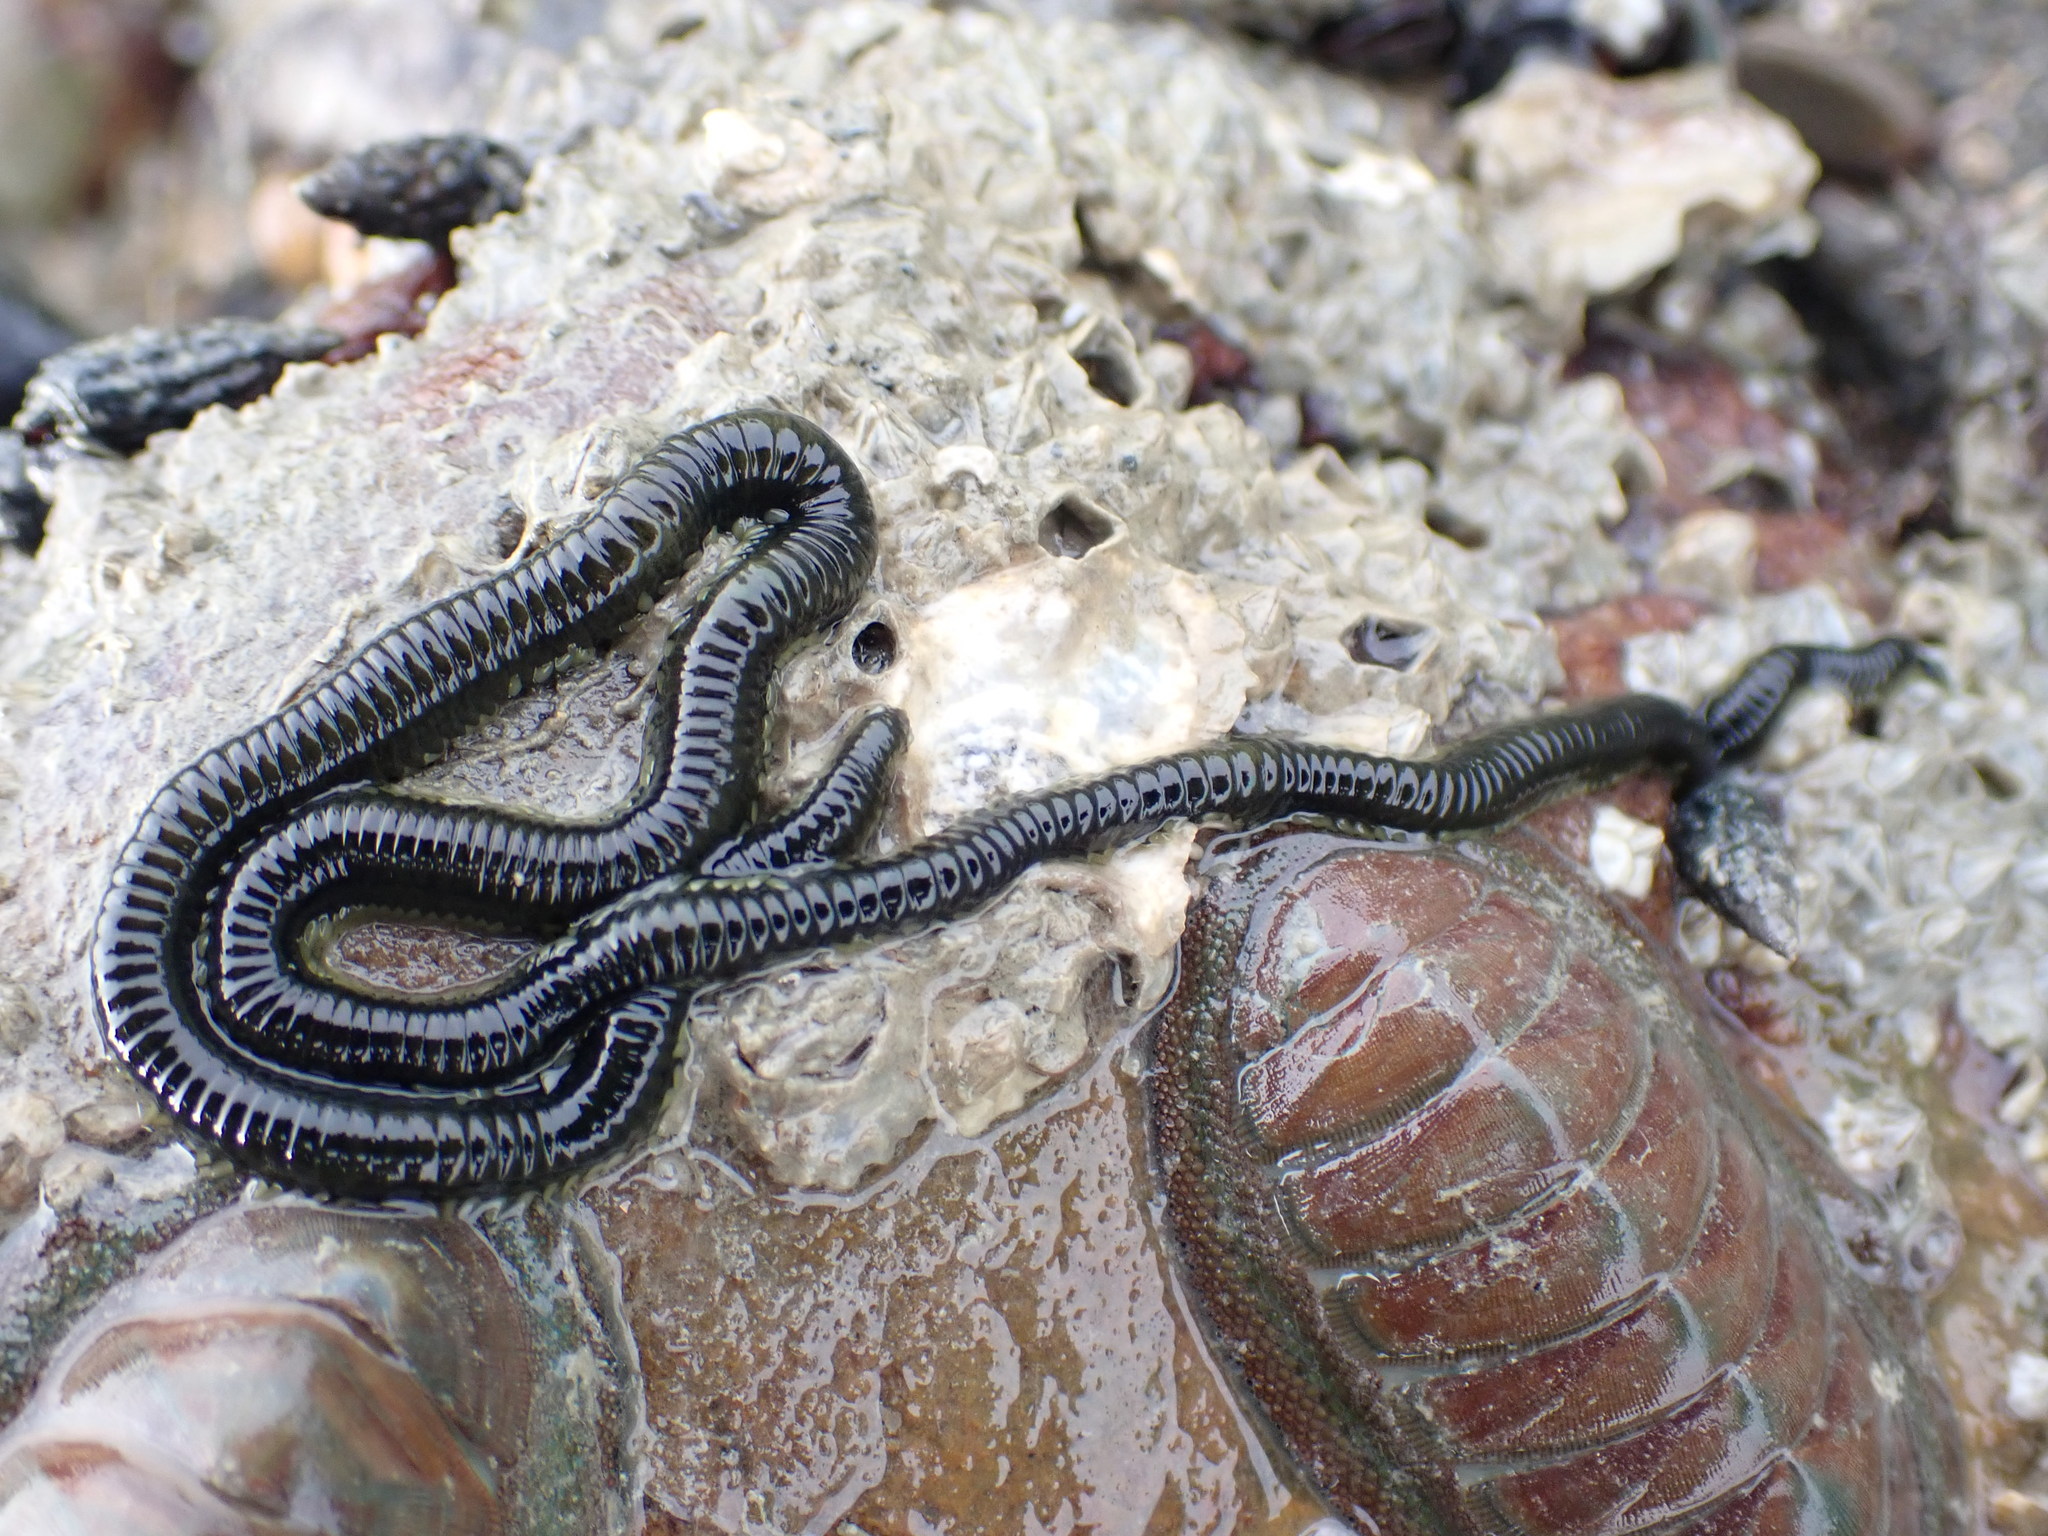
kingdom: Animalia
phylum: Annelida
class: Polychaeta
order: Phyllodocida
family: Phyllodocidae
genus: Eulalia
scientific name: Eulalia microphylla
